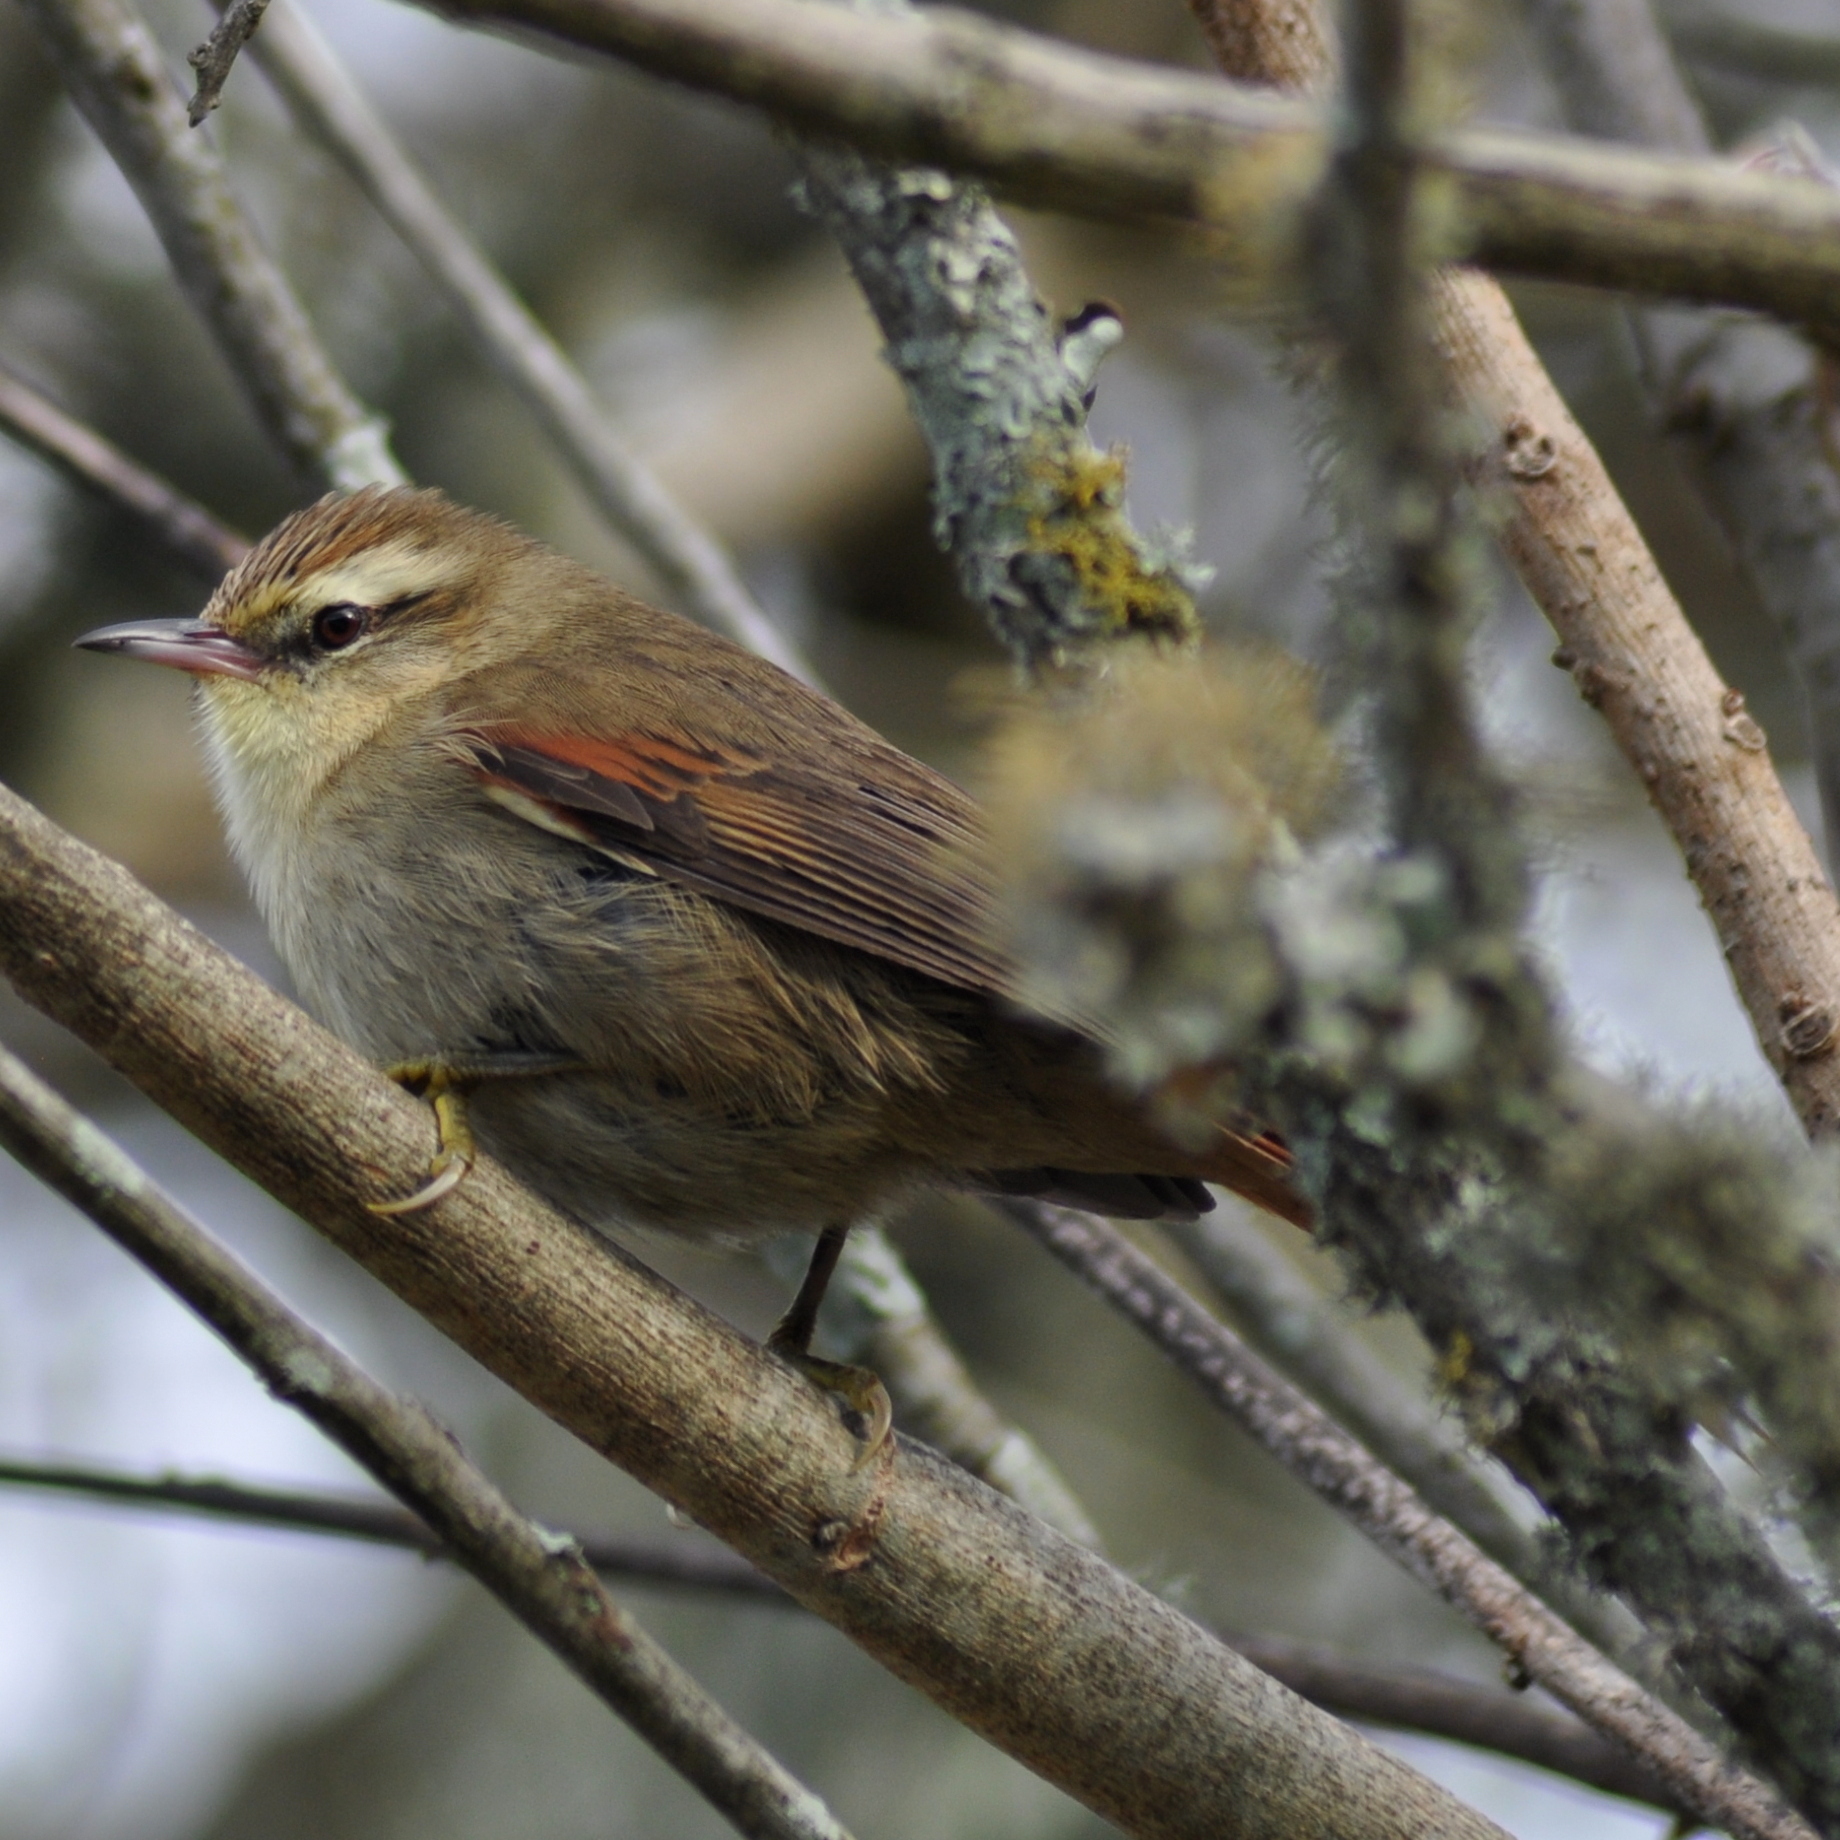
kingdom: Animalia
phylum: Chordata
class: Aves
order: Passeriformes
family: Furnariidae
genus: Cranioleuca
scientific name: Cranioleuca pyrrhophia
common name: Stripe-crowned spinetail
